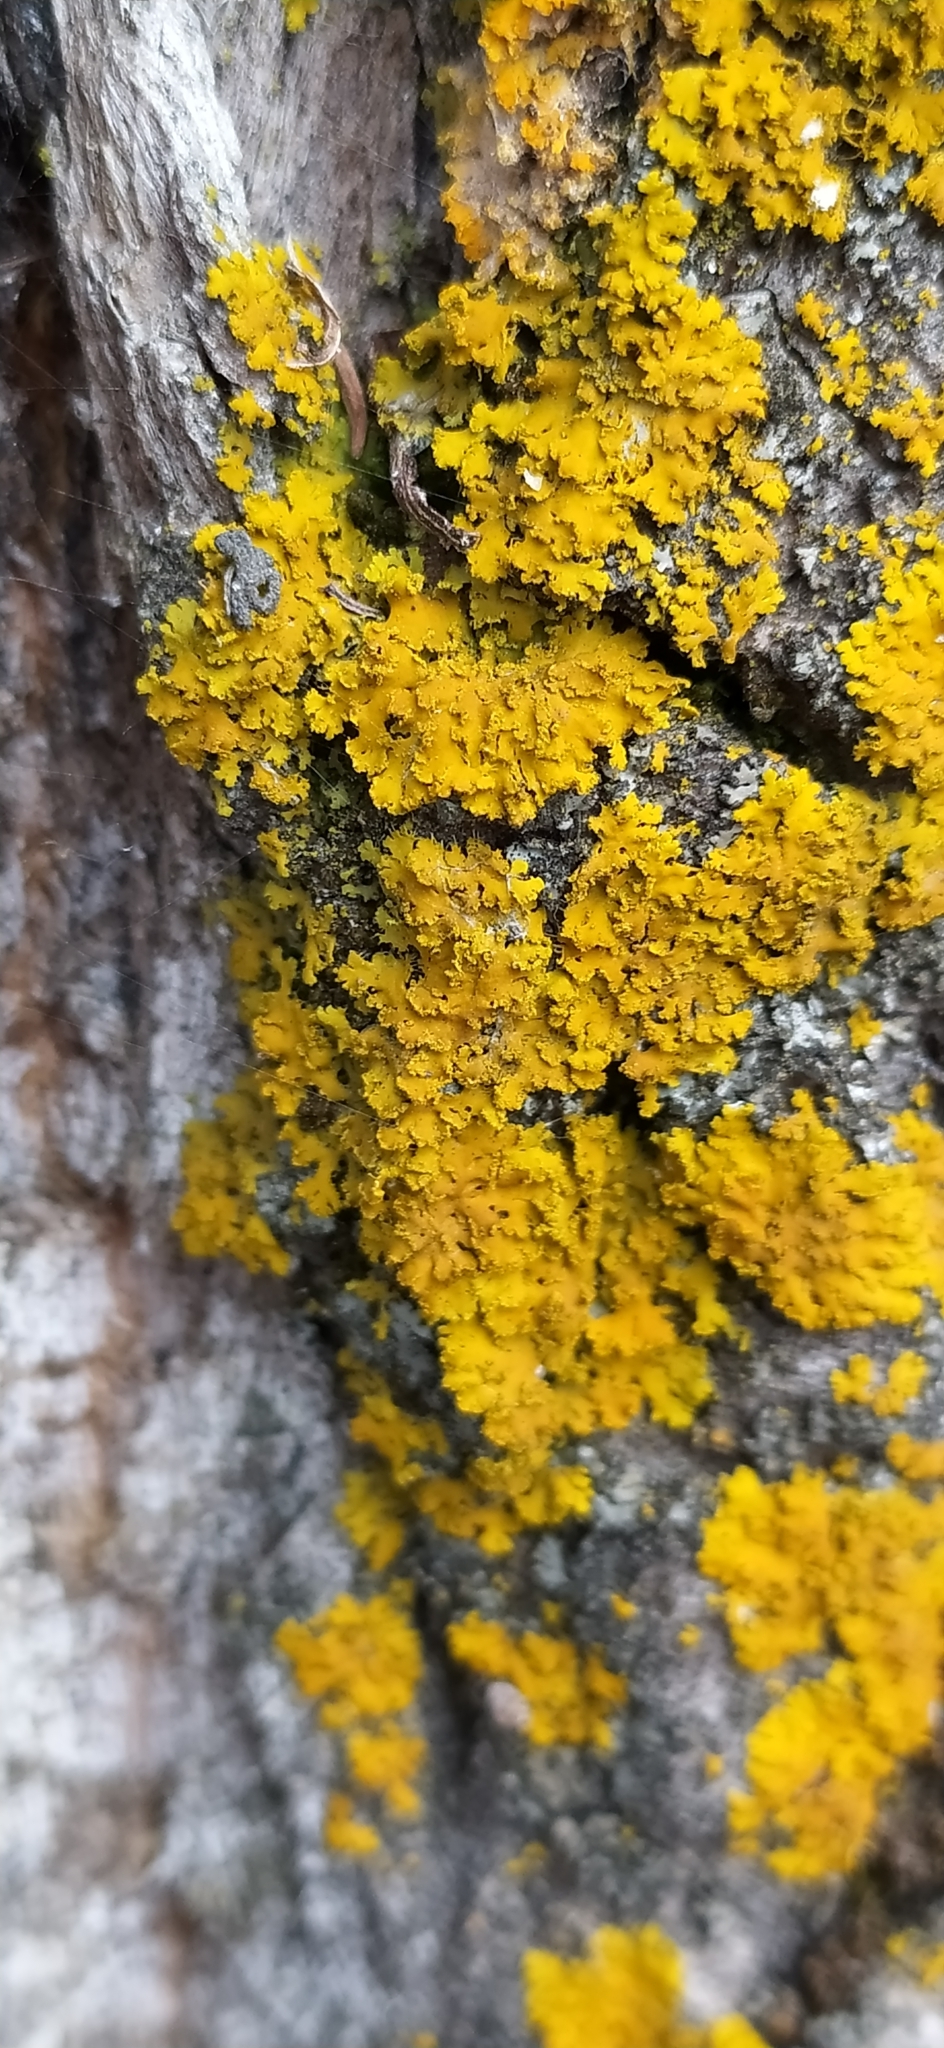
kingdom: Fungi
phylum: Ascomycota
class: Lecanoromycetes
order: Teloschistales
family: Teloschistaceae
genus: Xanthoria
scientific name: Xanthoria parietina
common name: Common orange lichen
